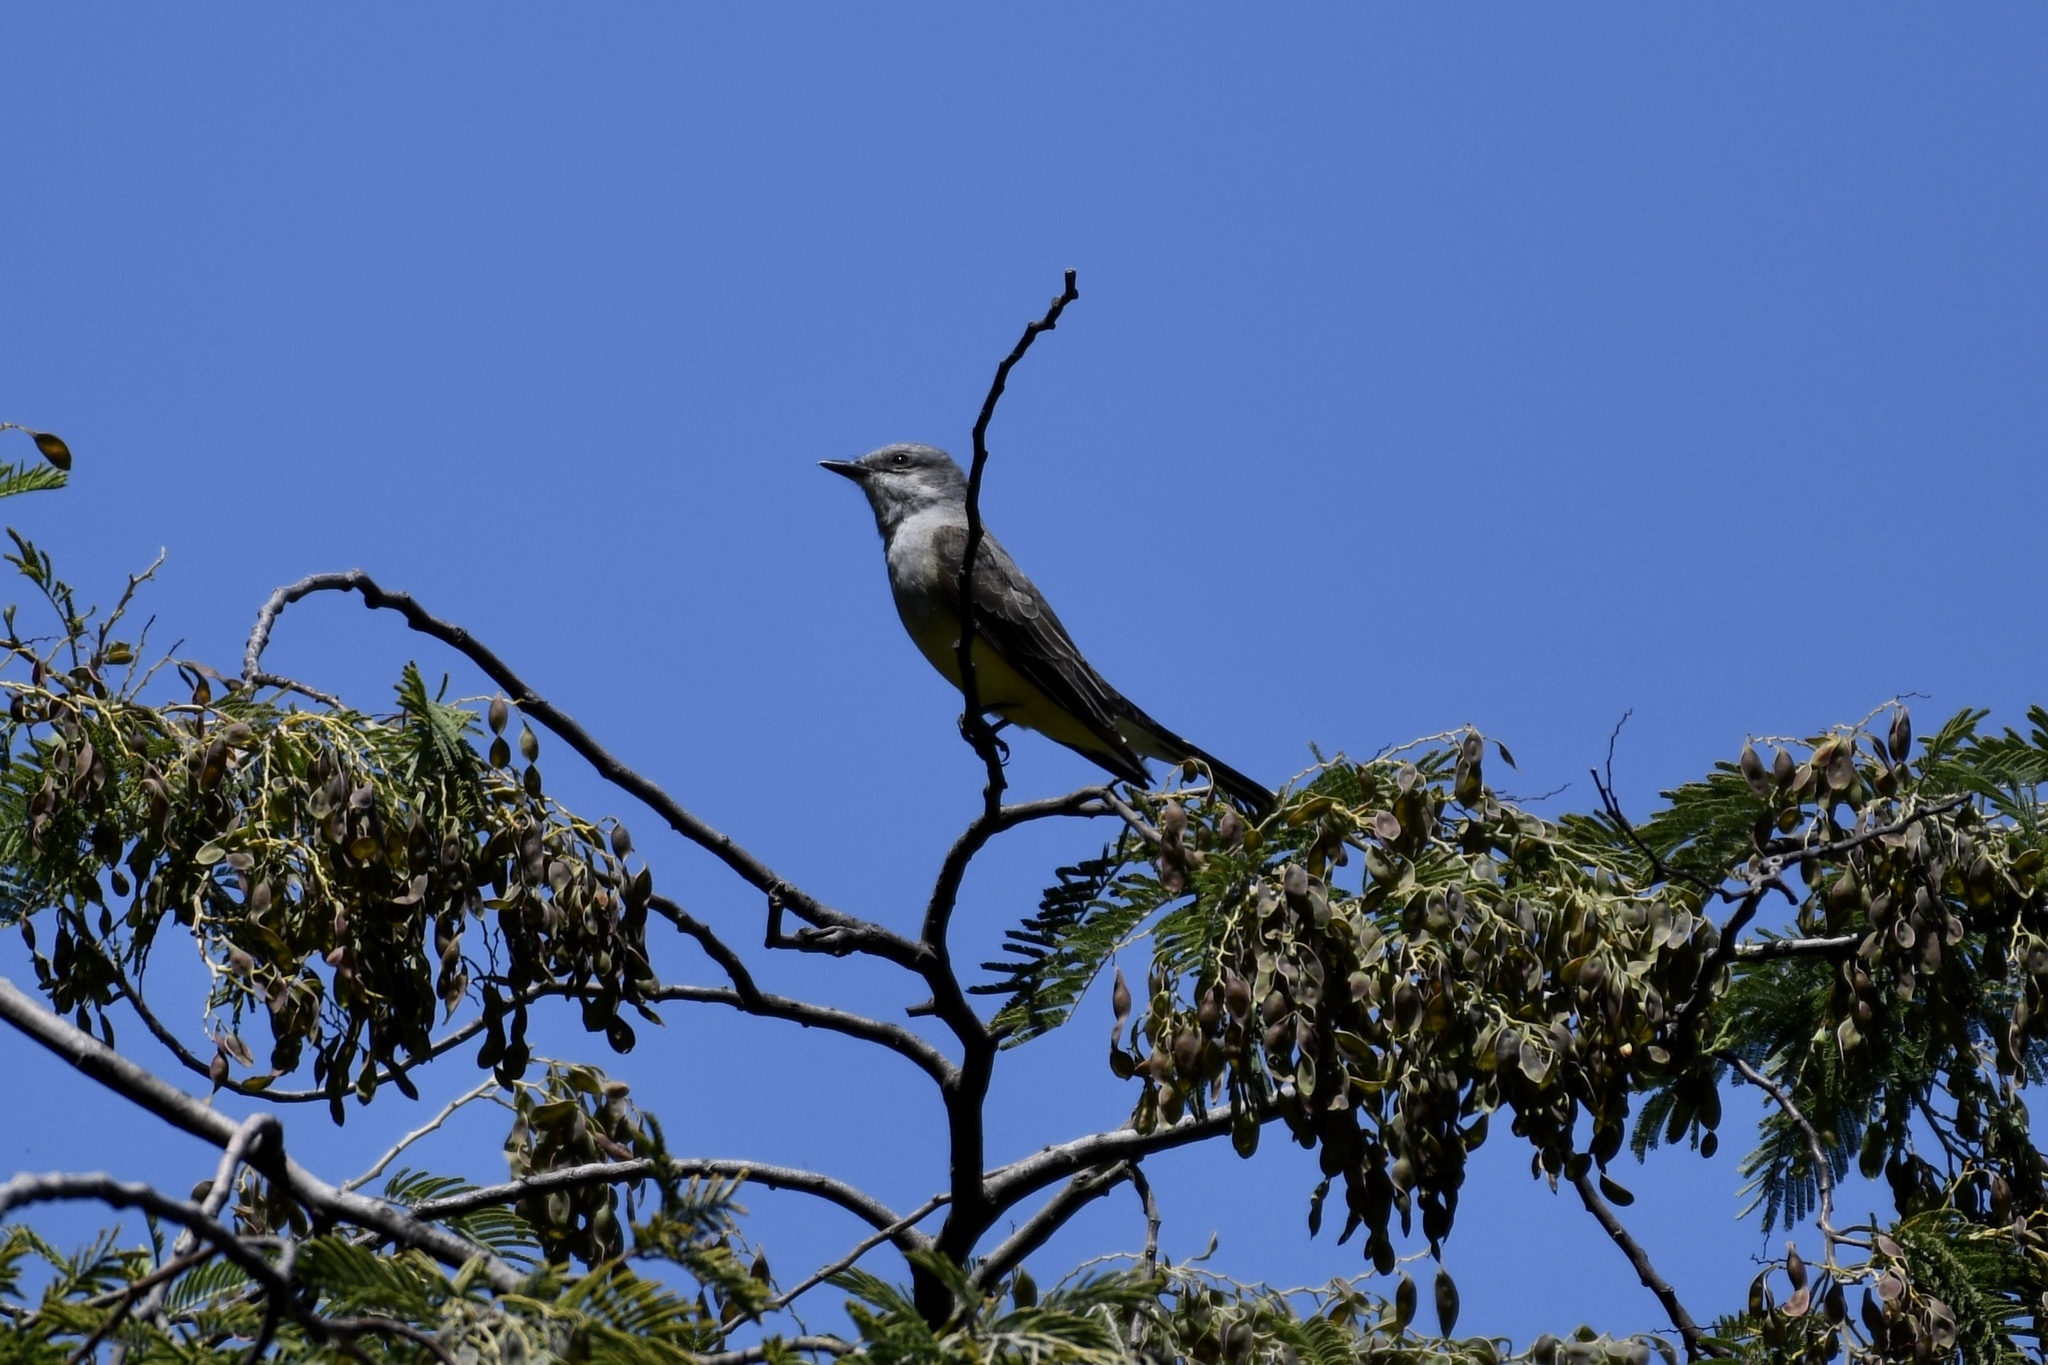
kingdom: Animalia
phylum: Chordata
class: Aves
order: Passeriformes
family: Tyrannidae
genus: Tyrannus
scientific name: Tyrannus verticalis
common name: Western kingbird
